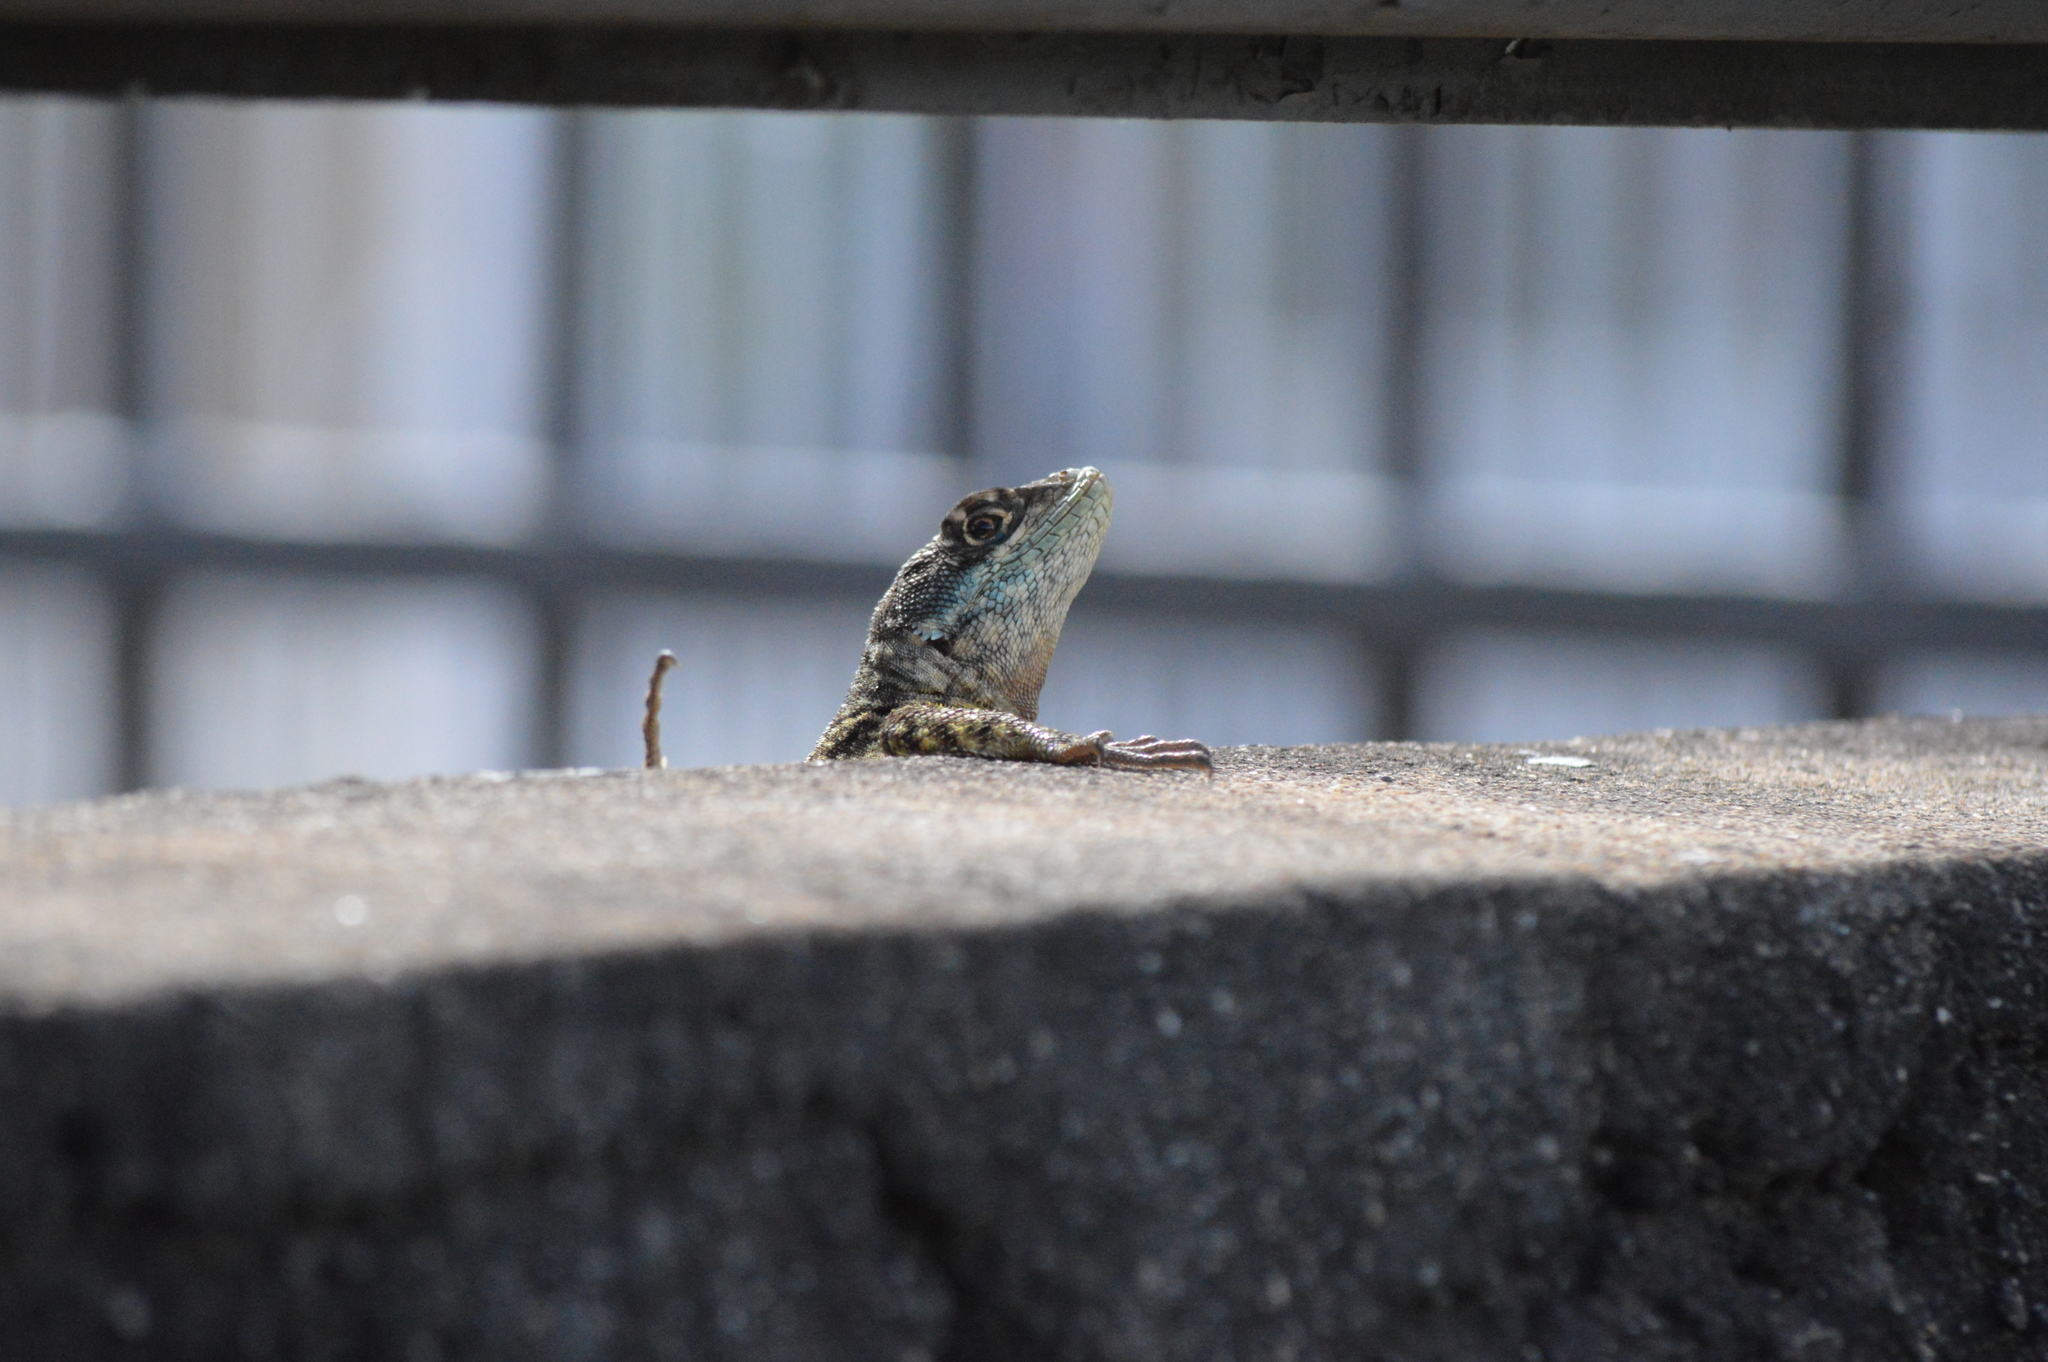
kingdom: Animalia
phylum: Chordata
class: Squamata
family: Tropiduridae
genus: Tropidurus
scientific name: Tropidurus torquatus
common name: Amazon lava lizard
